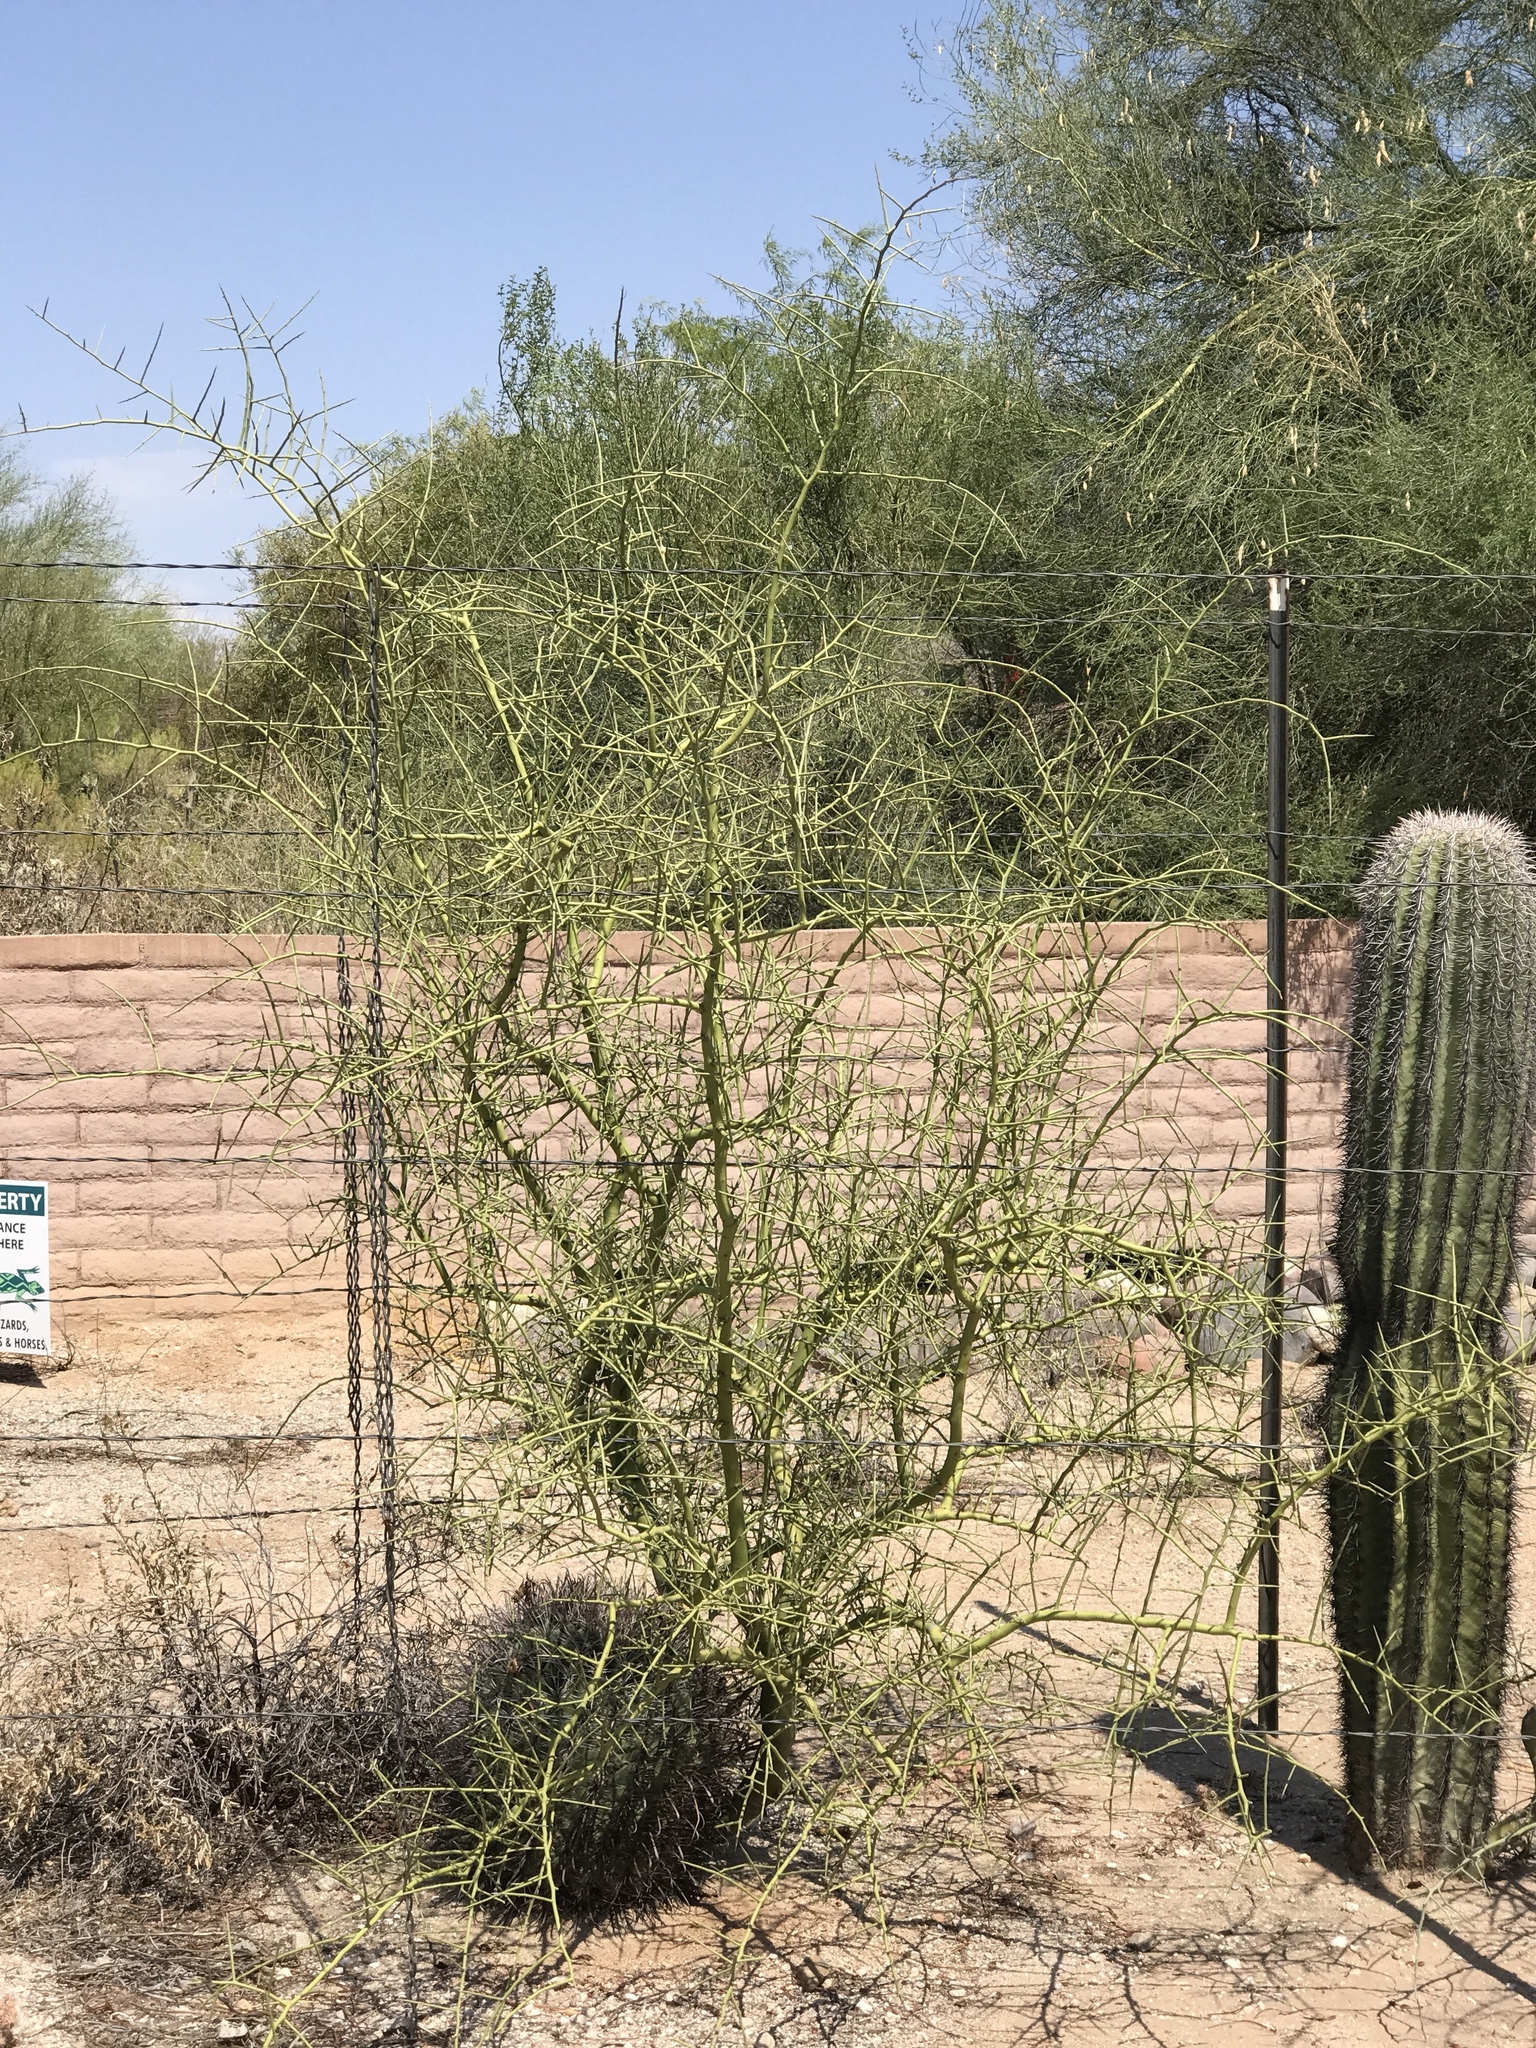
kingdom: Plantae
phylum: Tracheophyta
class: Magnoliopsida
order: Fabales
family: Fabaceae
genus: Parkinsonia
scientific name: Parkinsonia microphylla
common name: Yellow paloverde
